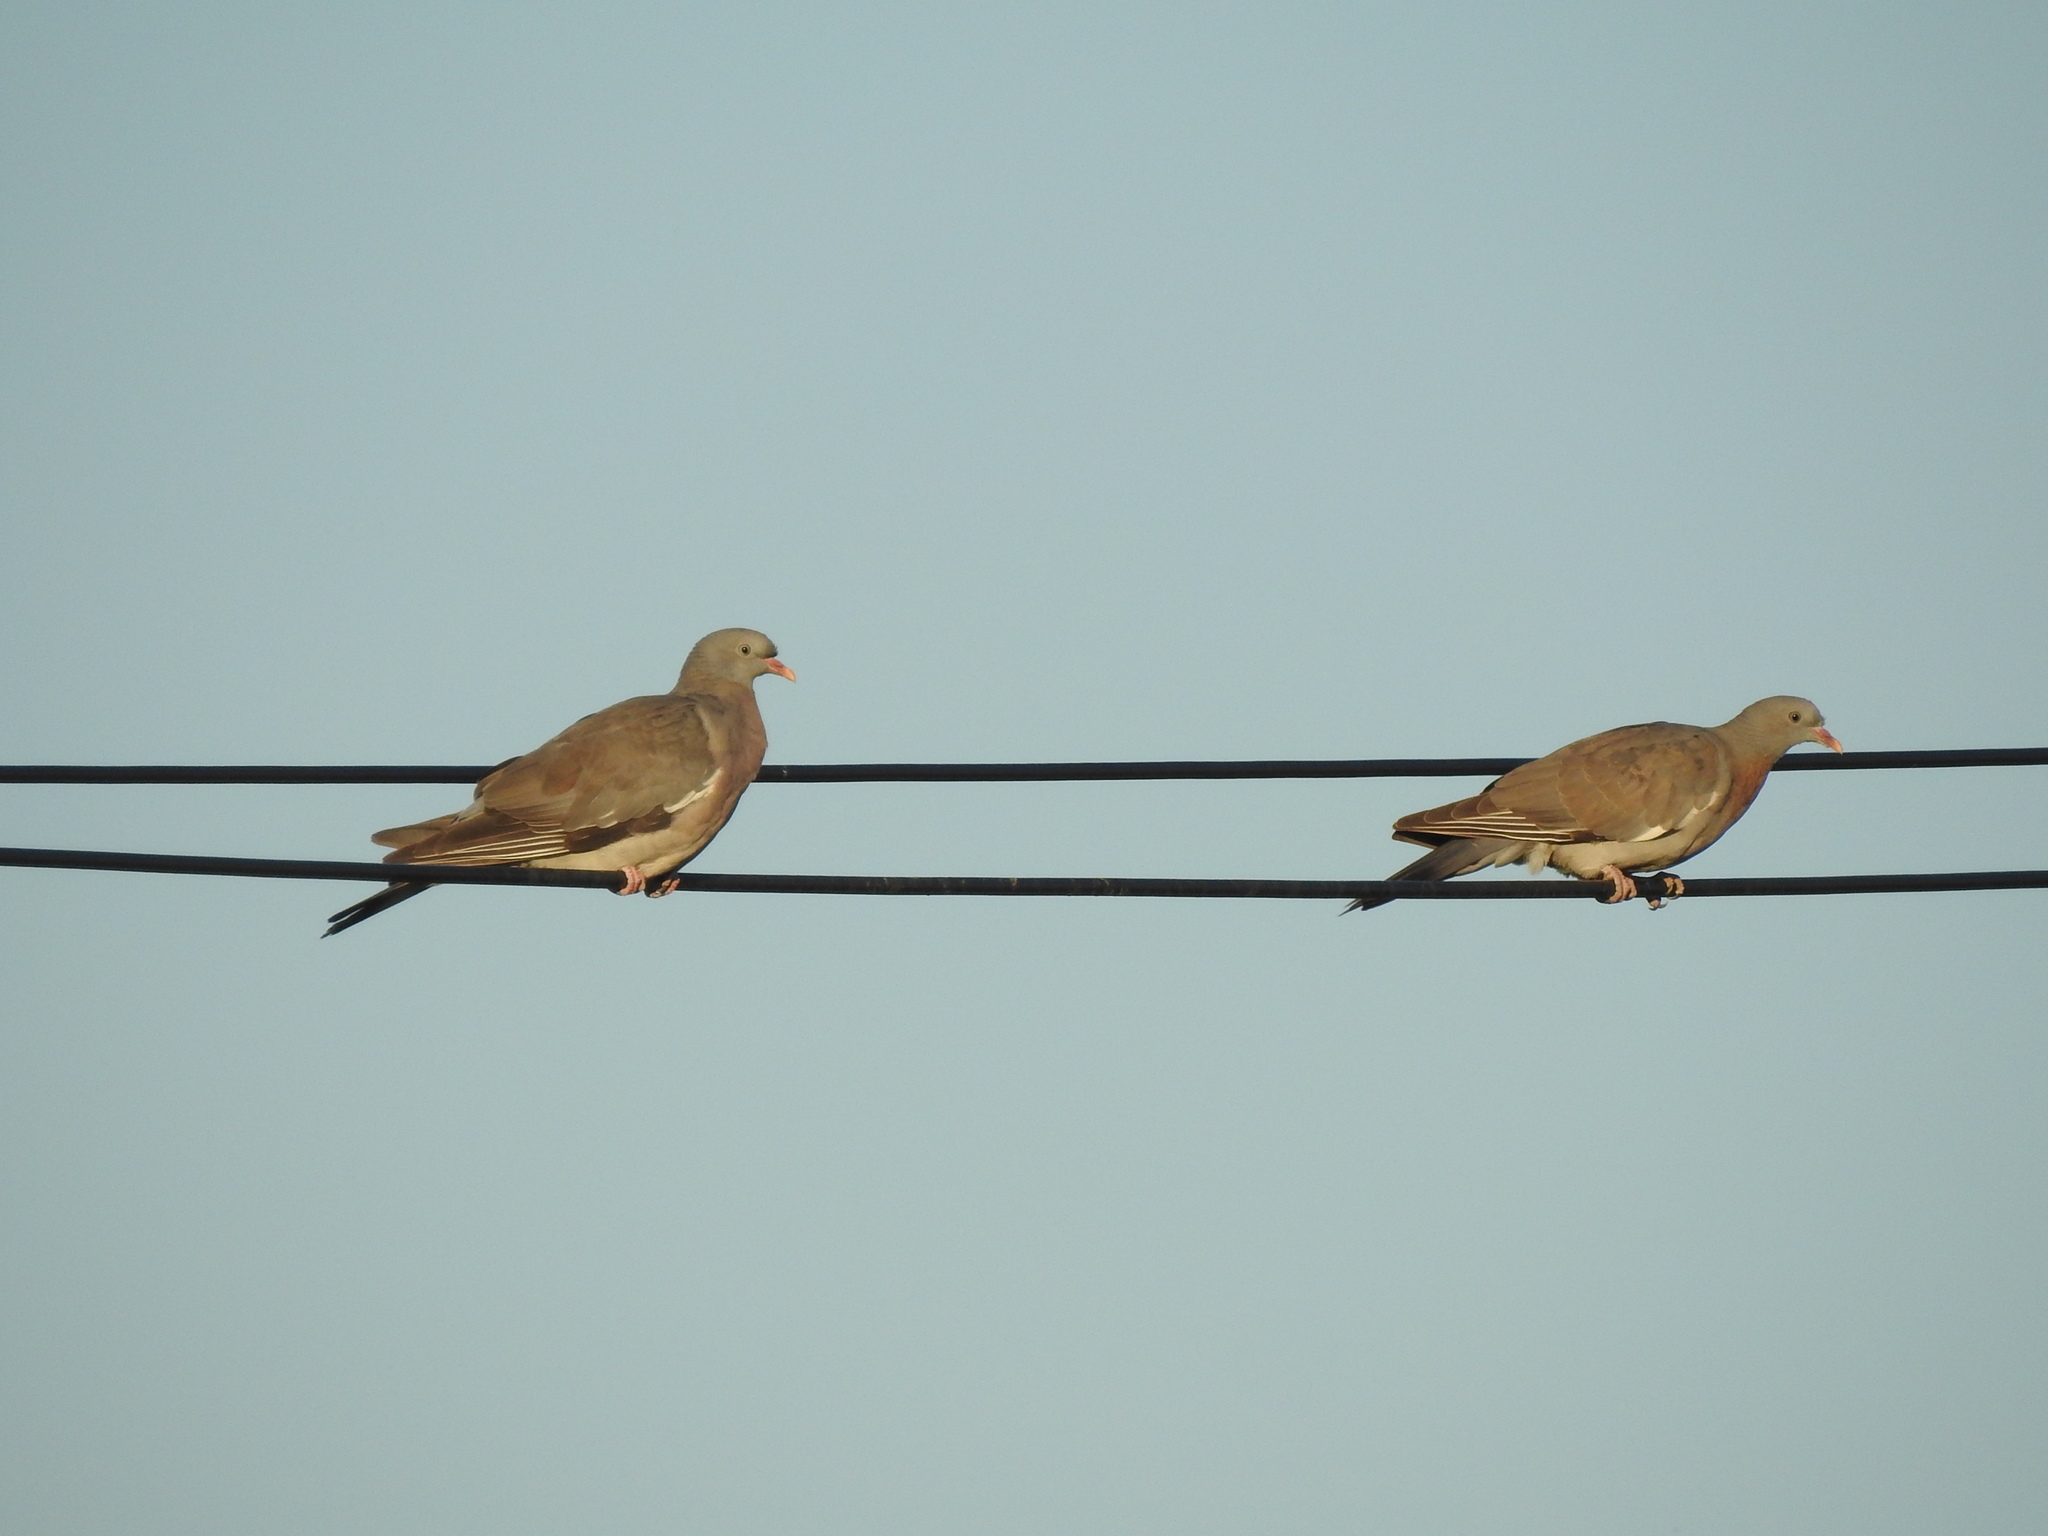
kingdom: Animalia
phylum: Chordata
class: Aves
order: Columbiformes
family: Columbidae
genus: Columba
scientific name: Columba palumbus
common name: Common wood pigeon
